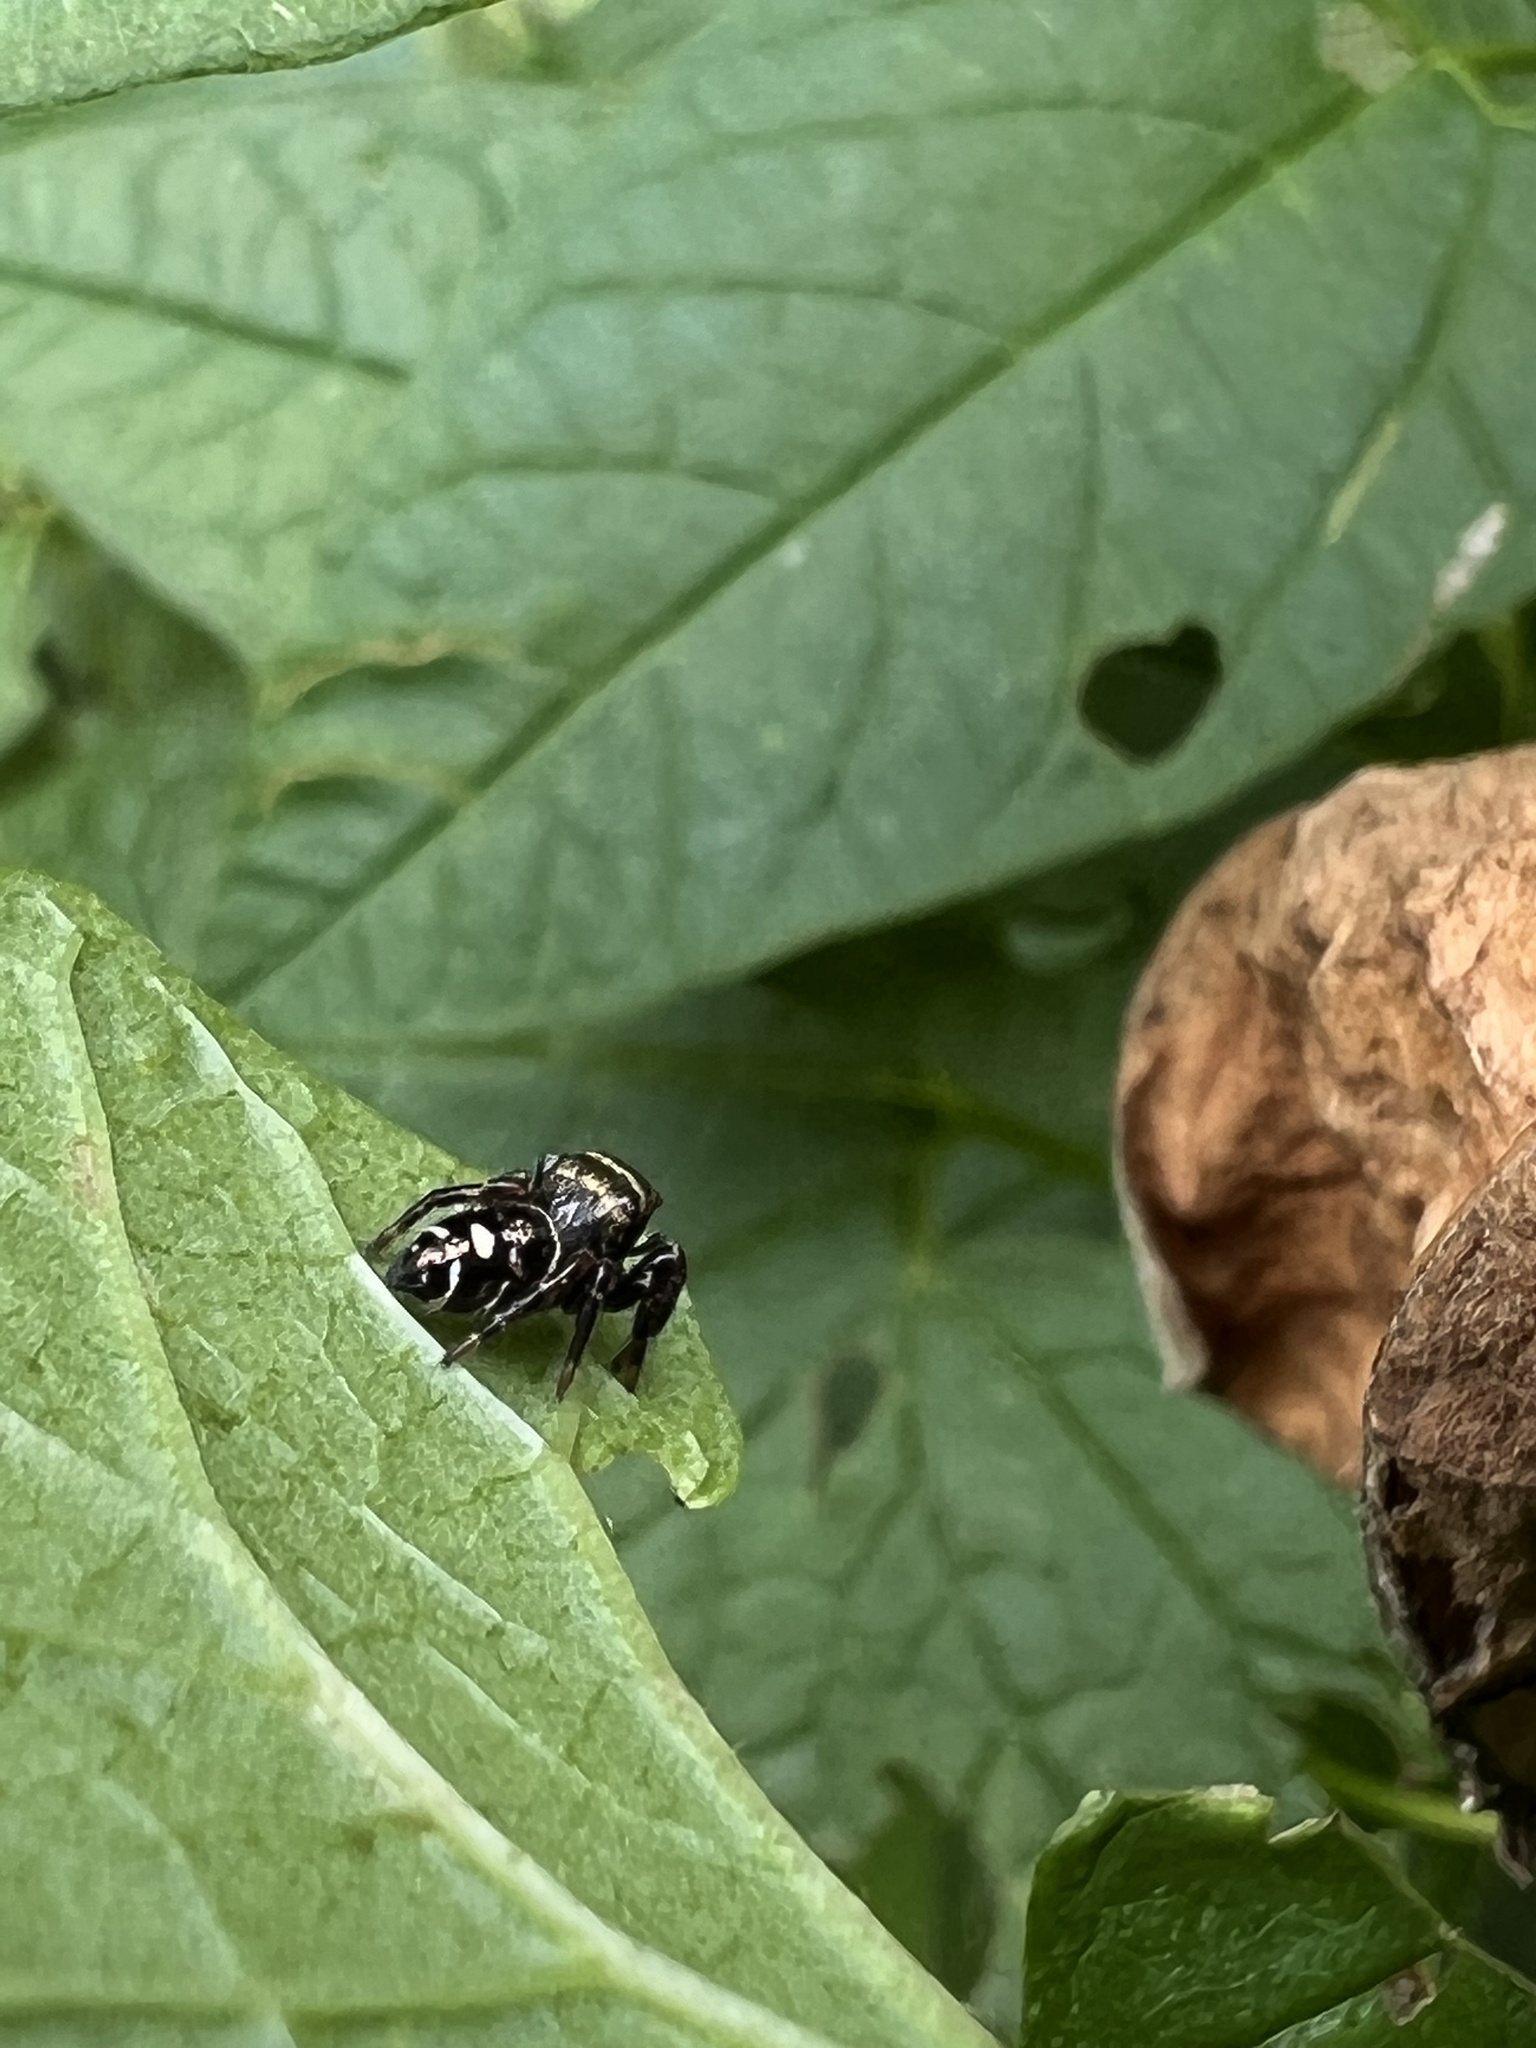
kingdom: Animalia
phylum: Arthropoda
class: Arachnida
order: Araneae
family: Salticidae
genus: Phidippus
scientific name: Phidippus audax
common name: Bold jumper
